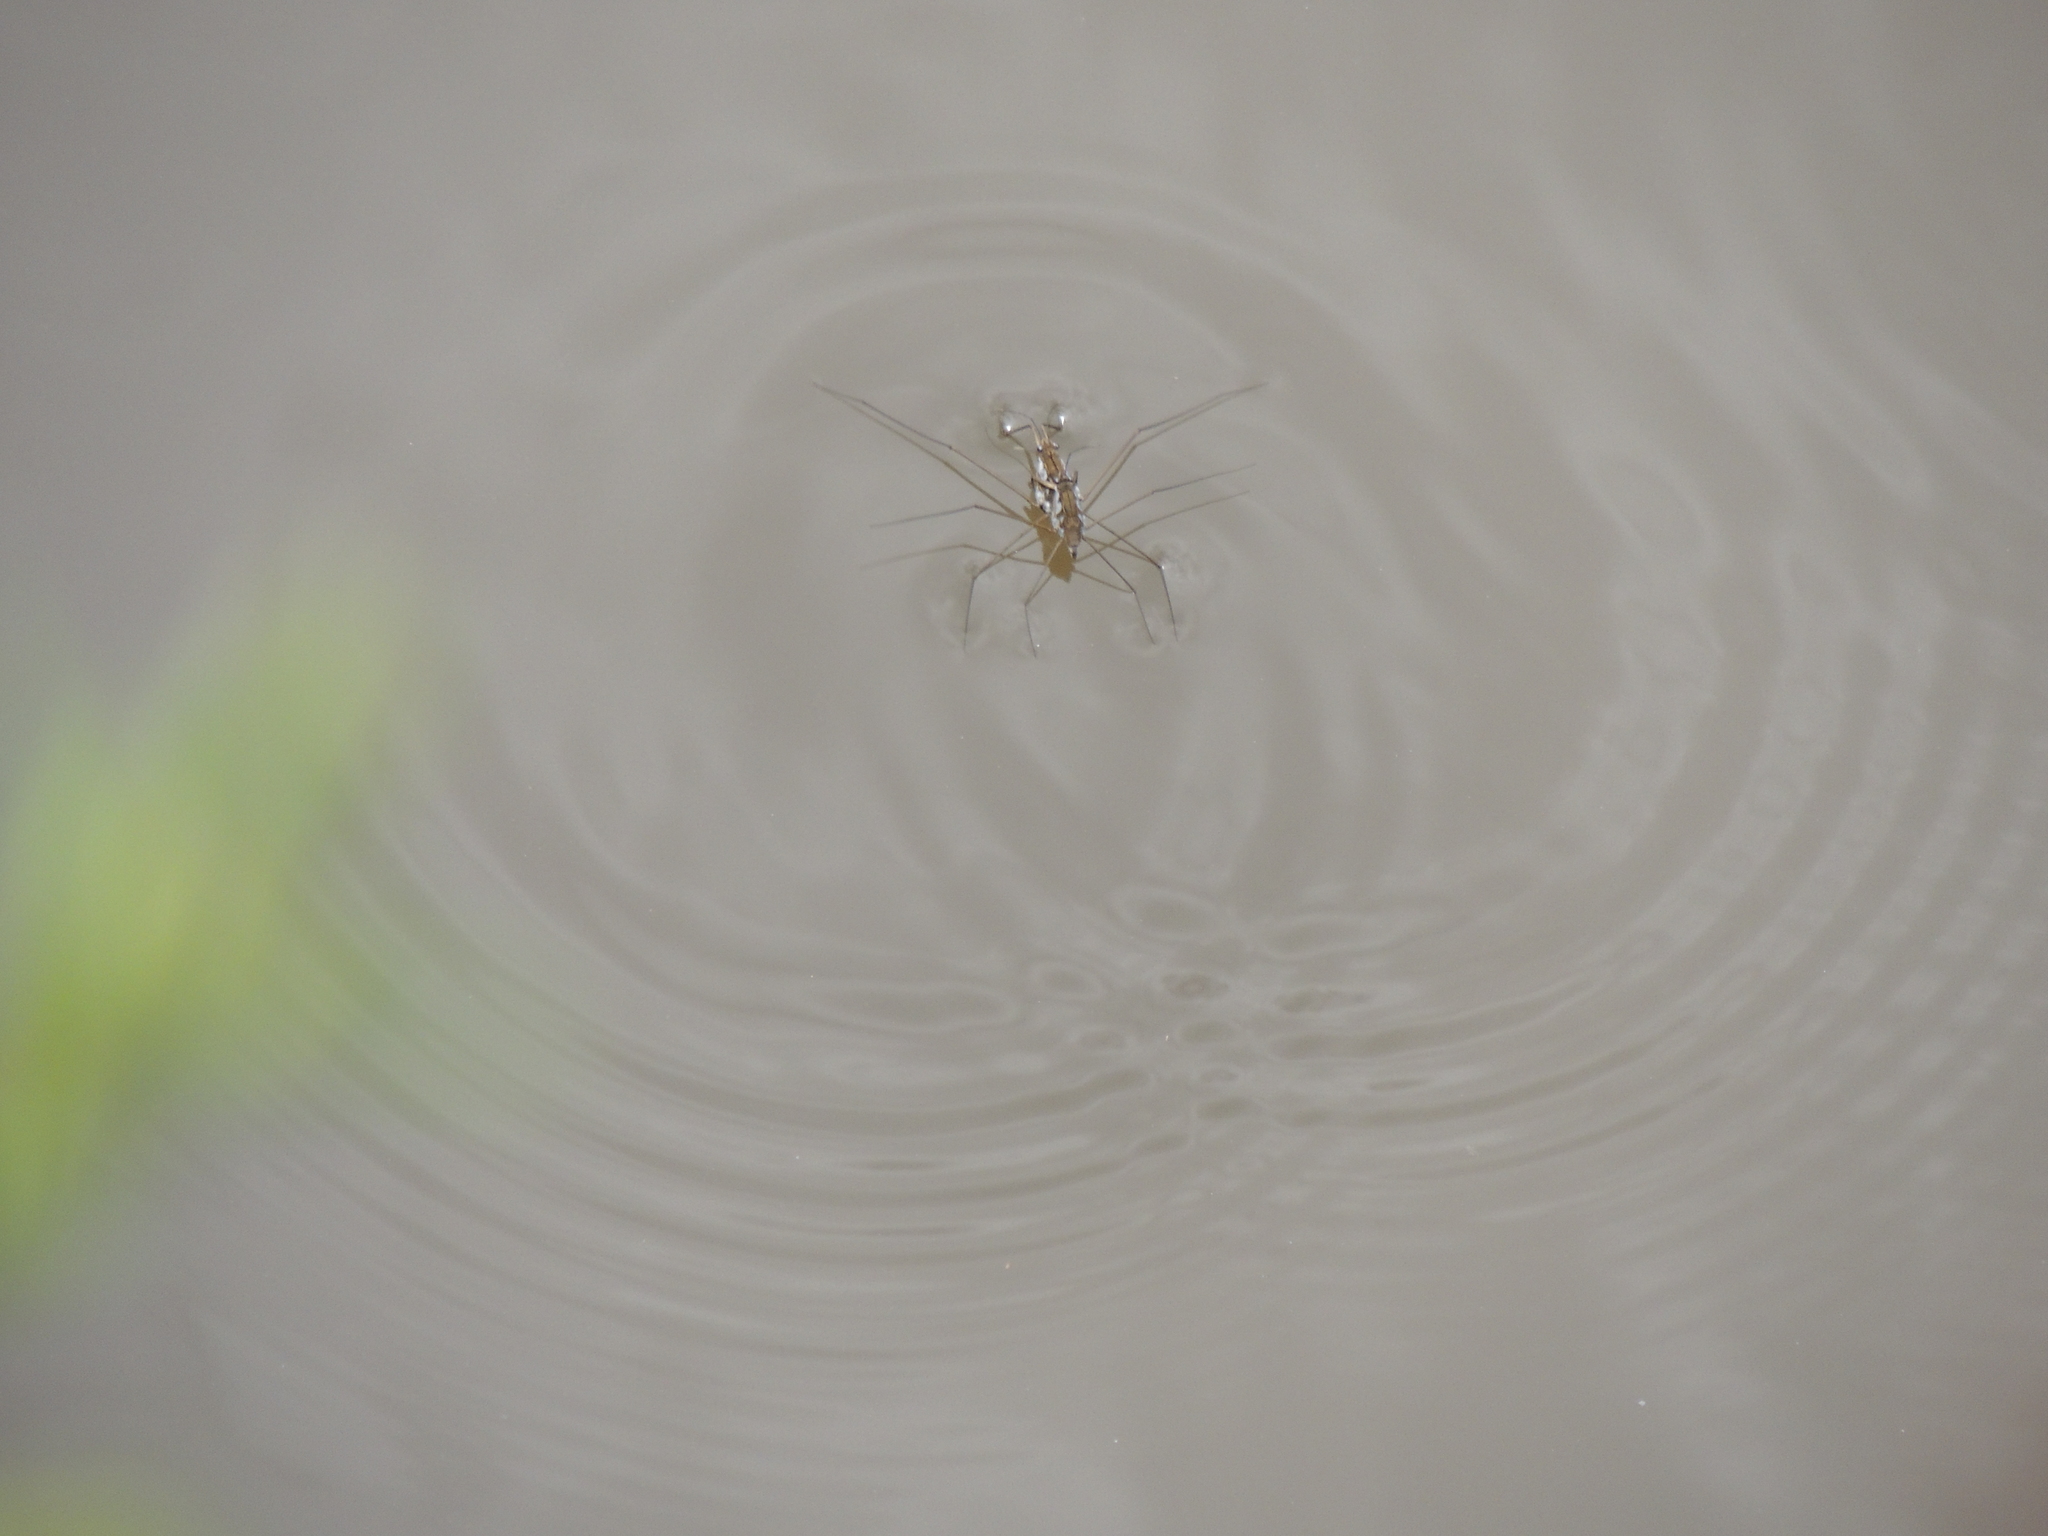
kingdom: Animalia
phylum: Arthropoda
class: Insecta
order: Hemiptera
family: Gerridae
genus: Tenagogerris
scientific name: Tenagogerris euphrosyne
